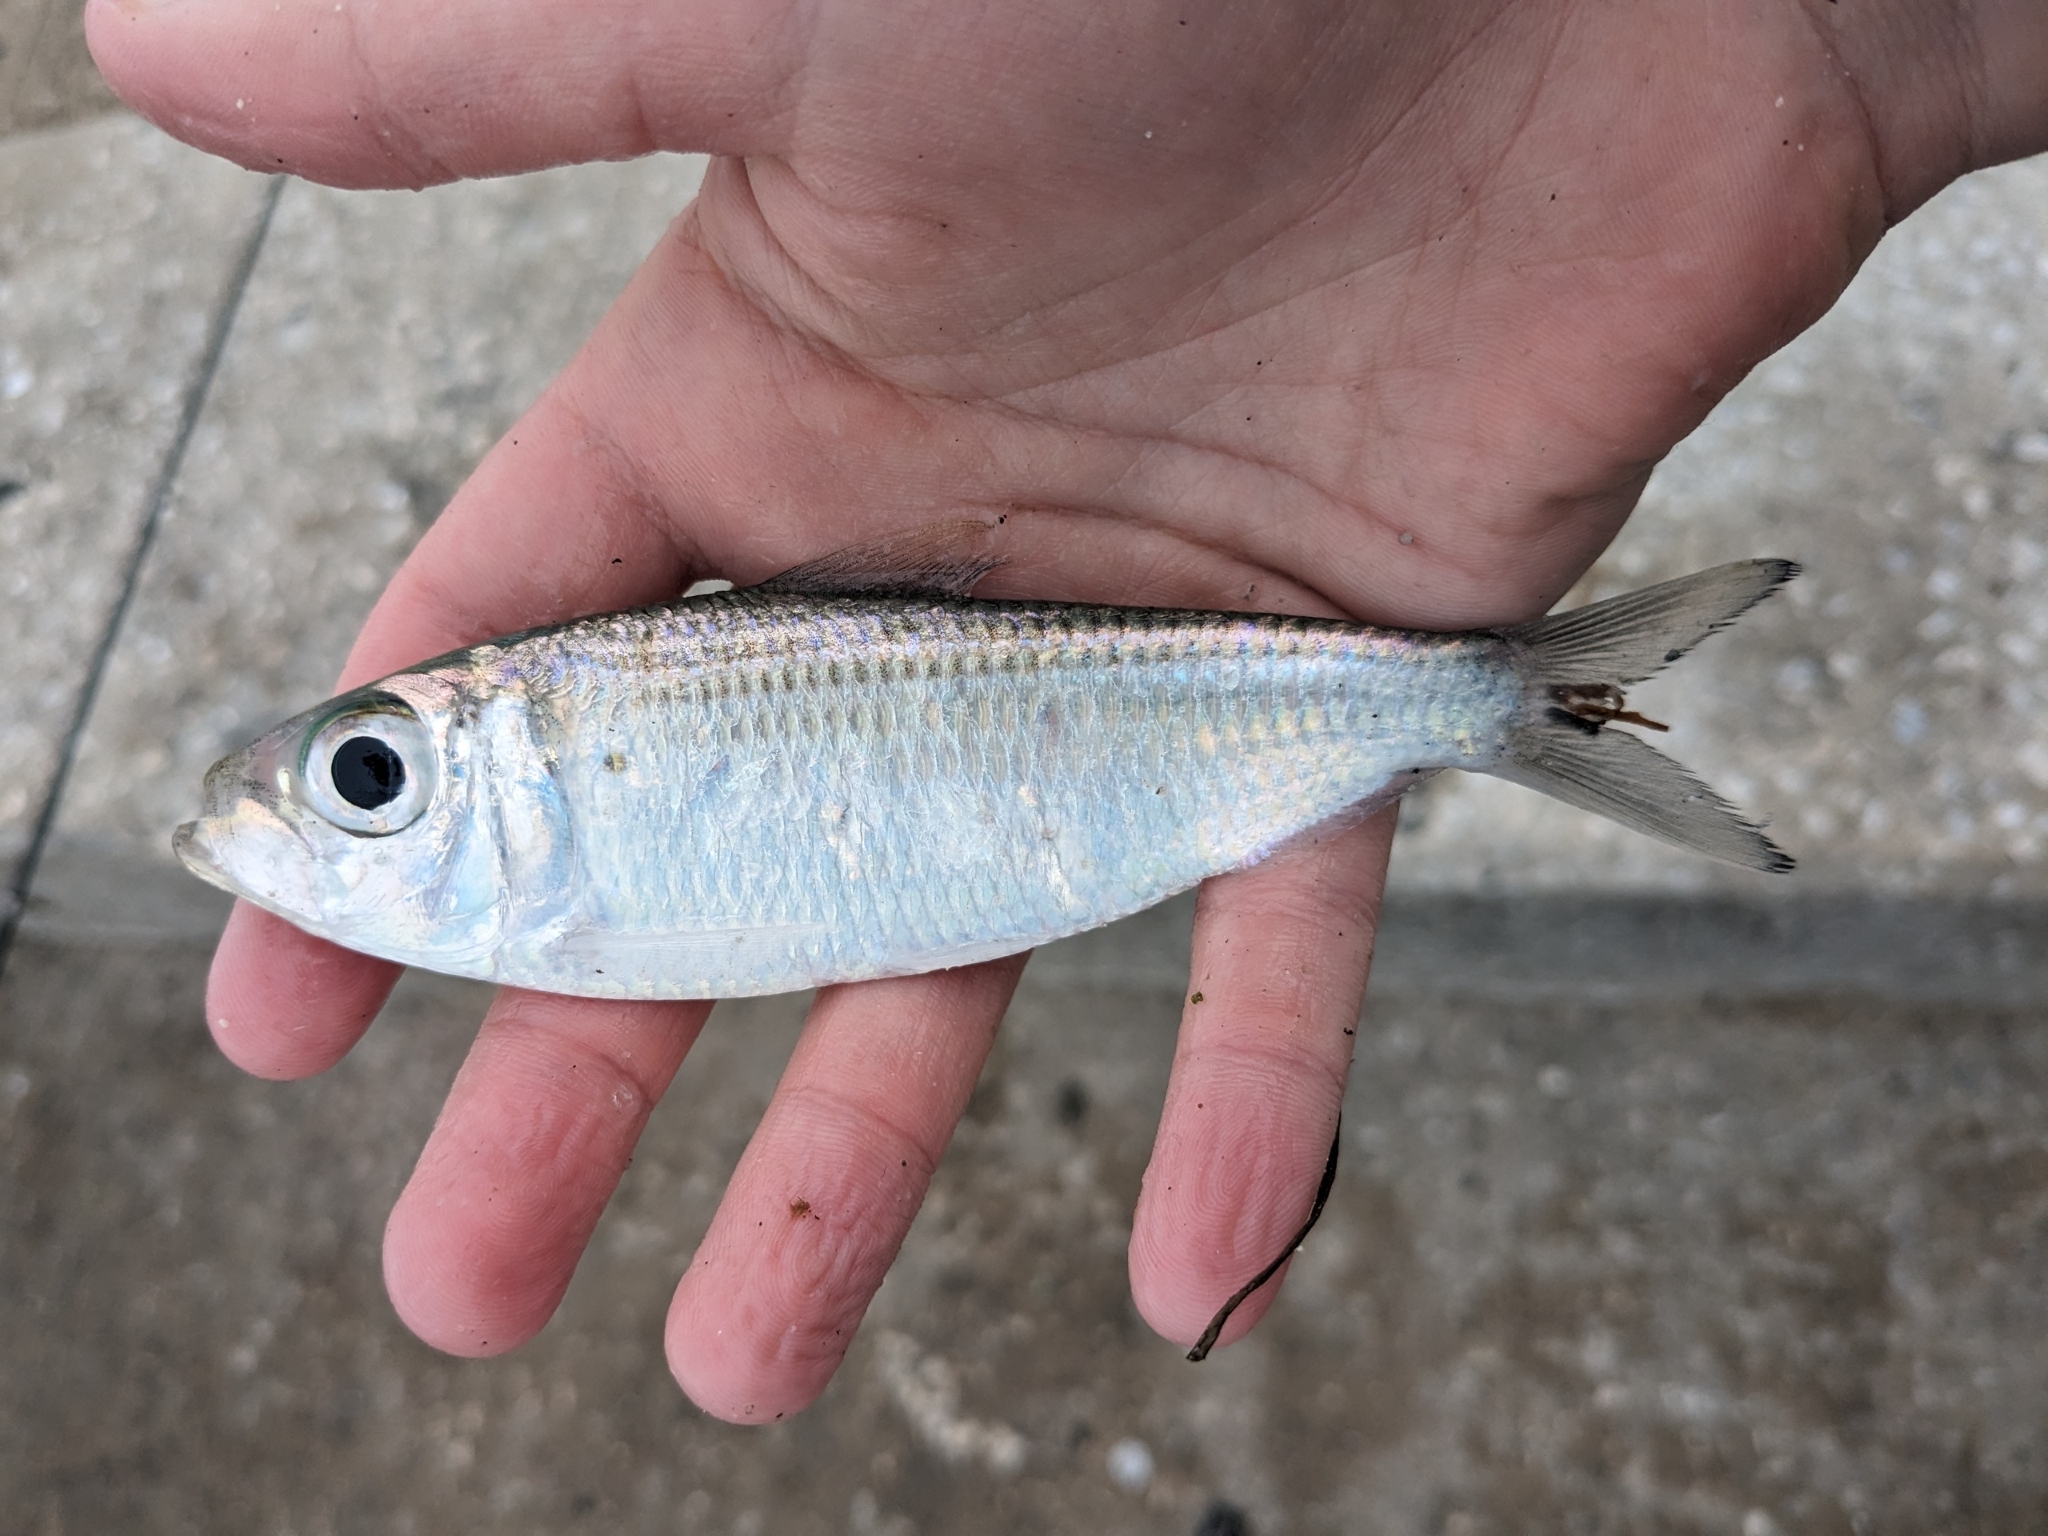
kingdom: Animalia
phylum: Chordata
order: Clupeiformes
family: Clupeidae
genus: Harengula
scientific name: Harengula jaguana
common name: Scaled sardine
